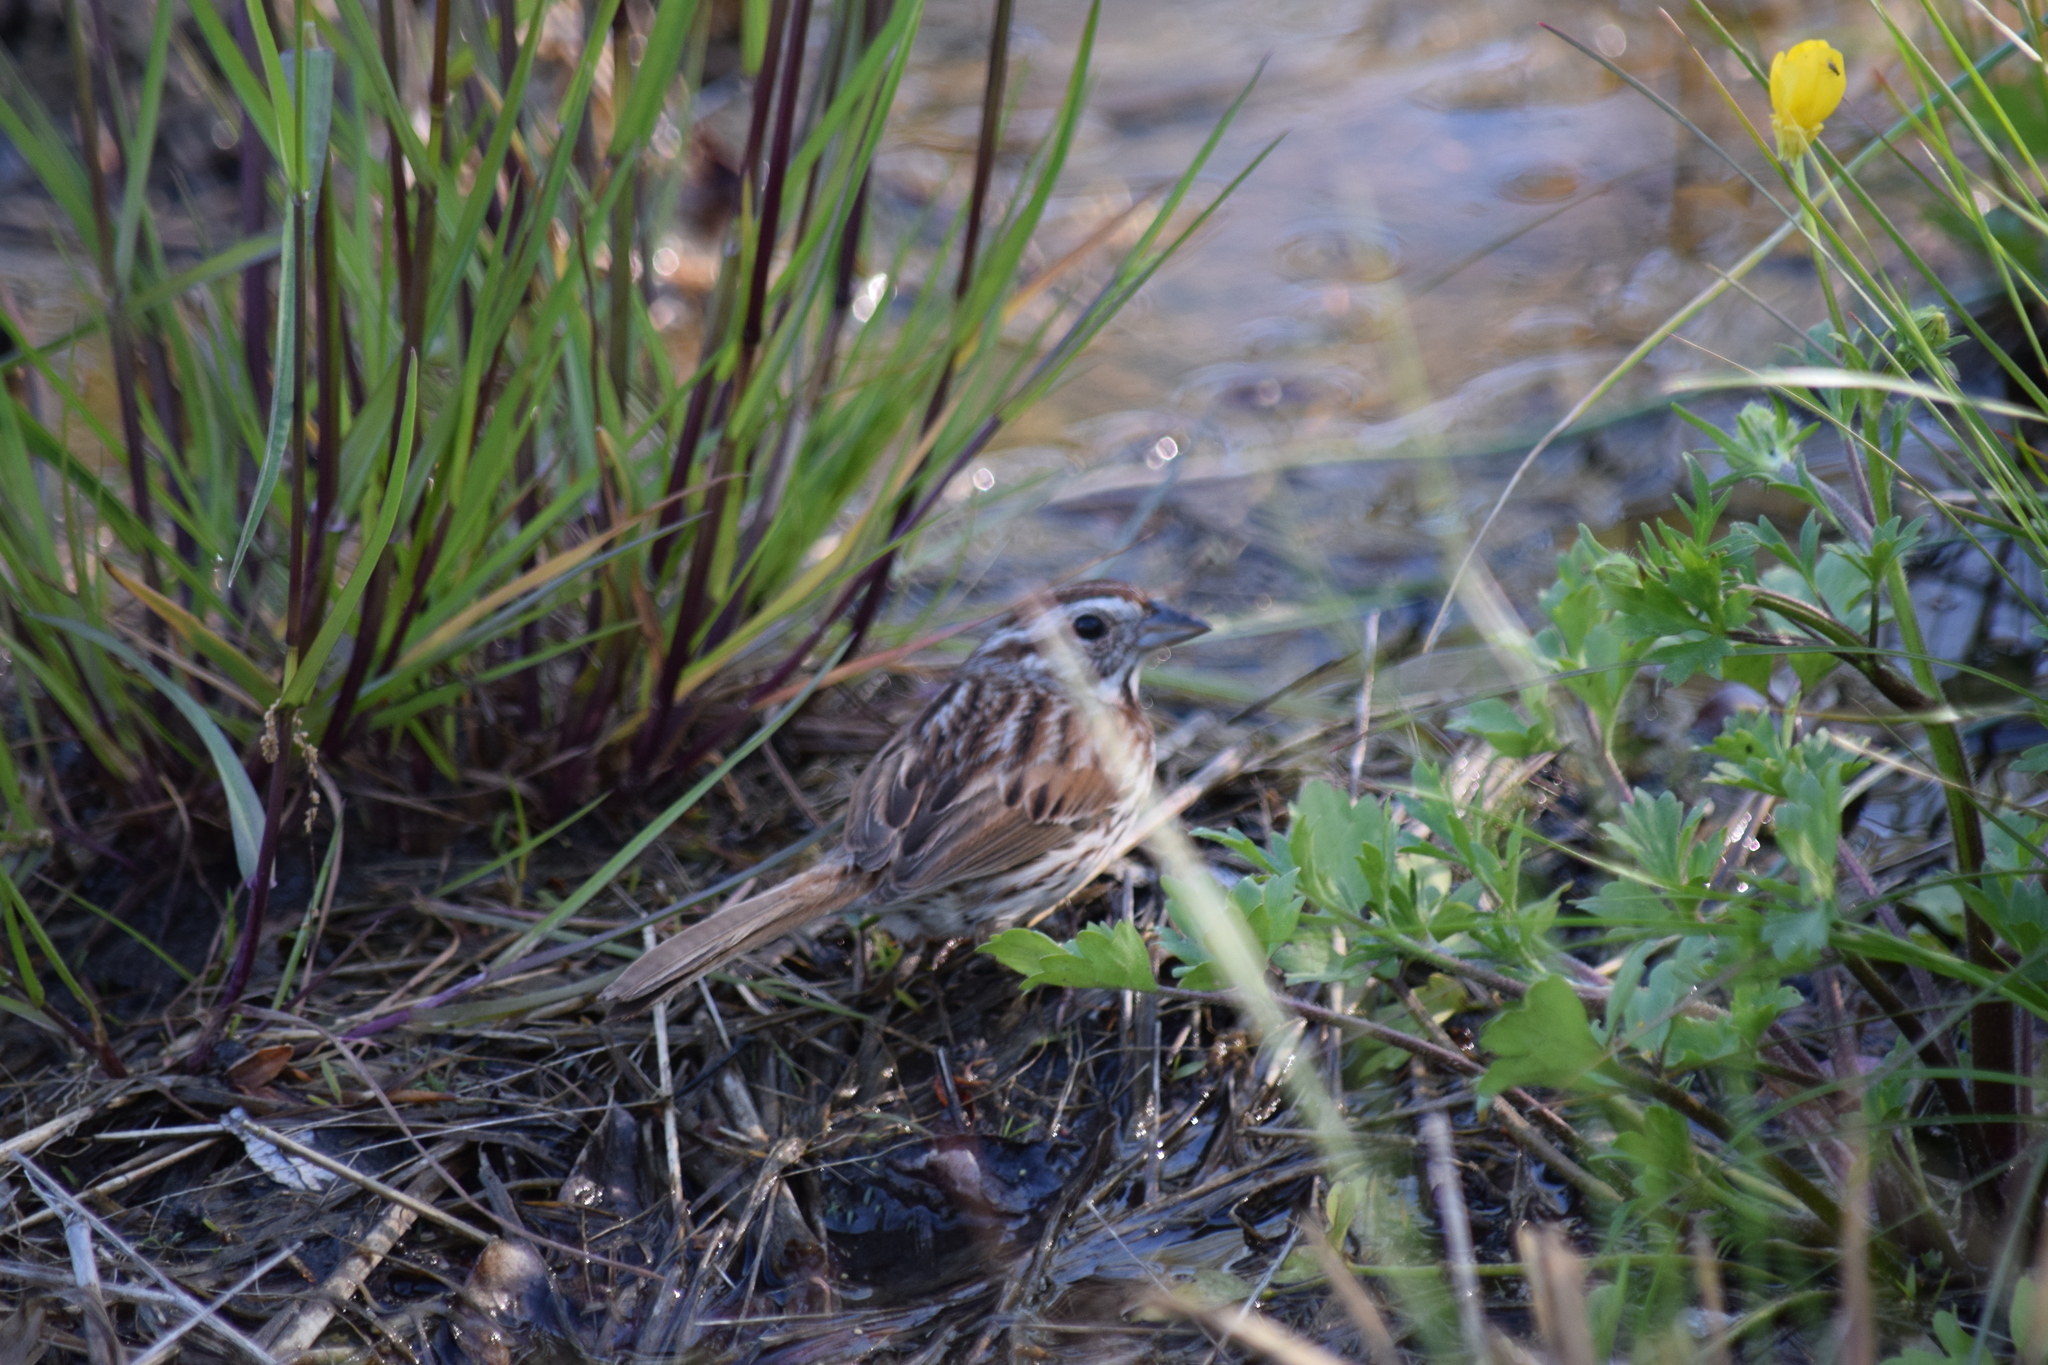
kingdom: Animalia
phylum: Chordata
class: Aves
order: Passeriformes
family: Passerellidae
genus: Melospiza
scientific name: Melospiza melodia
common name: Song sparrow
